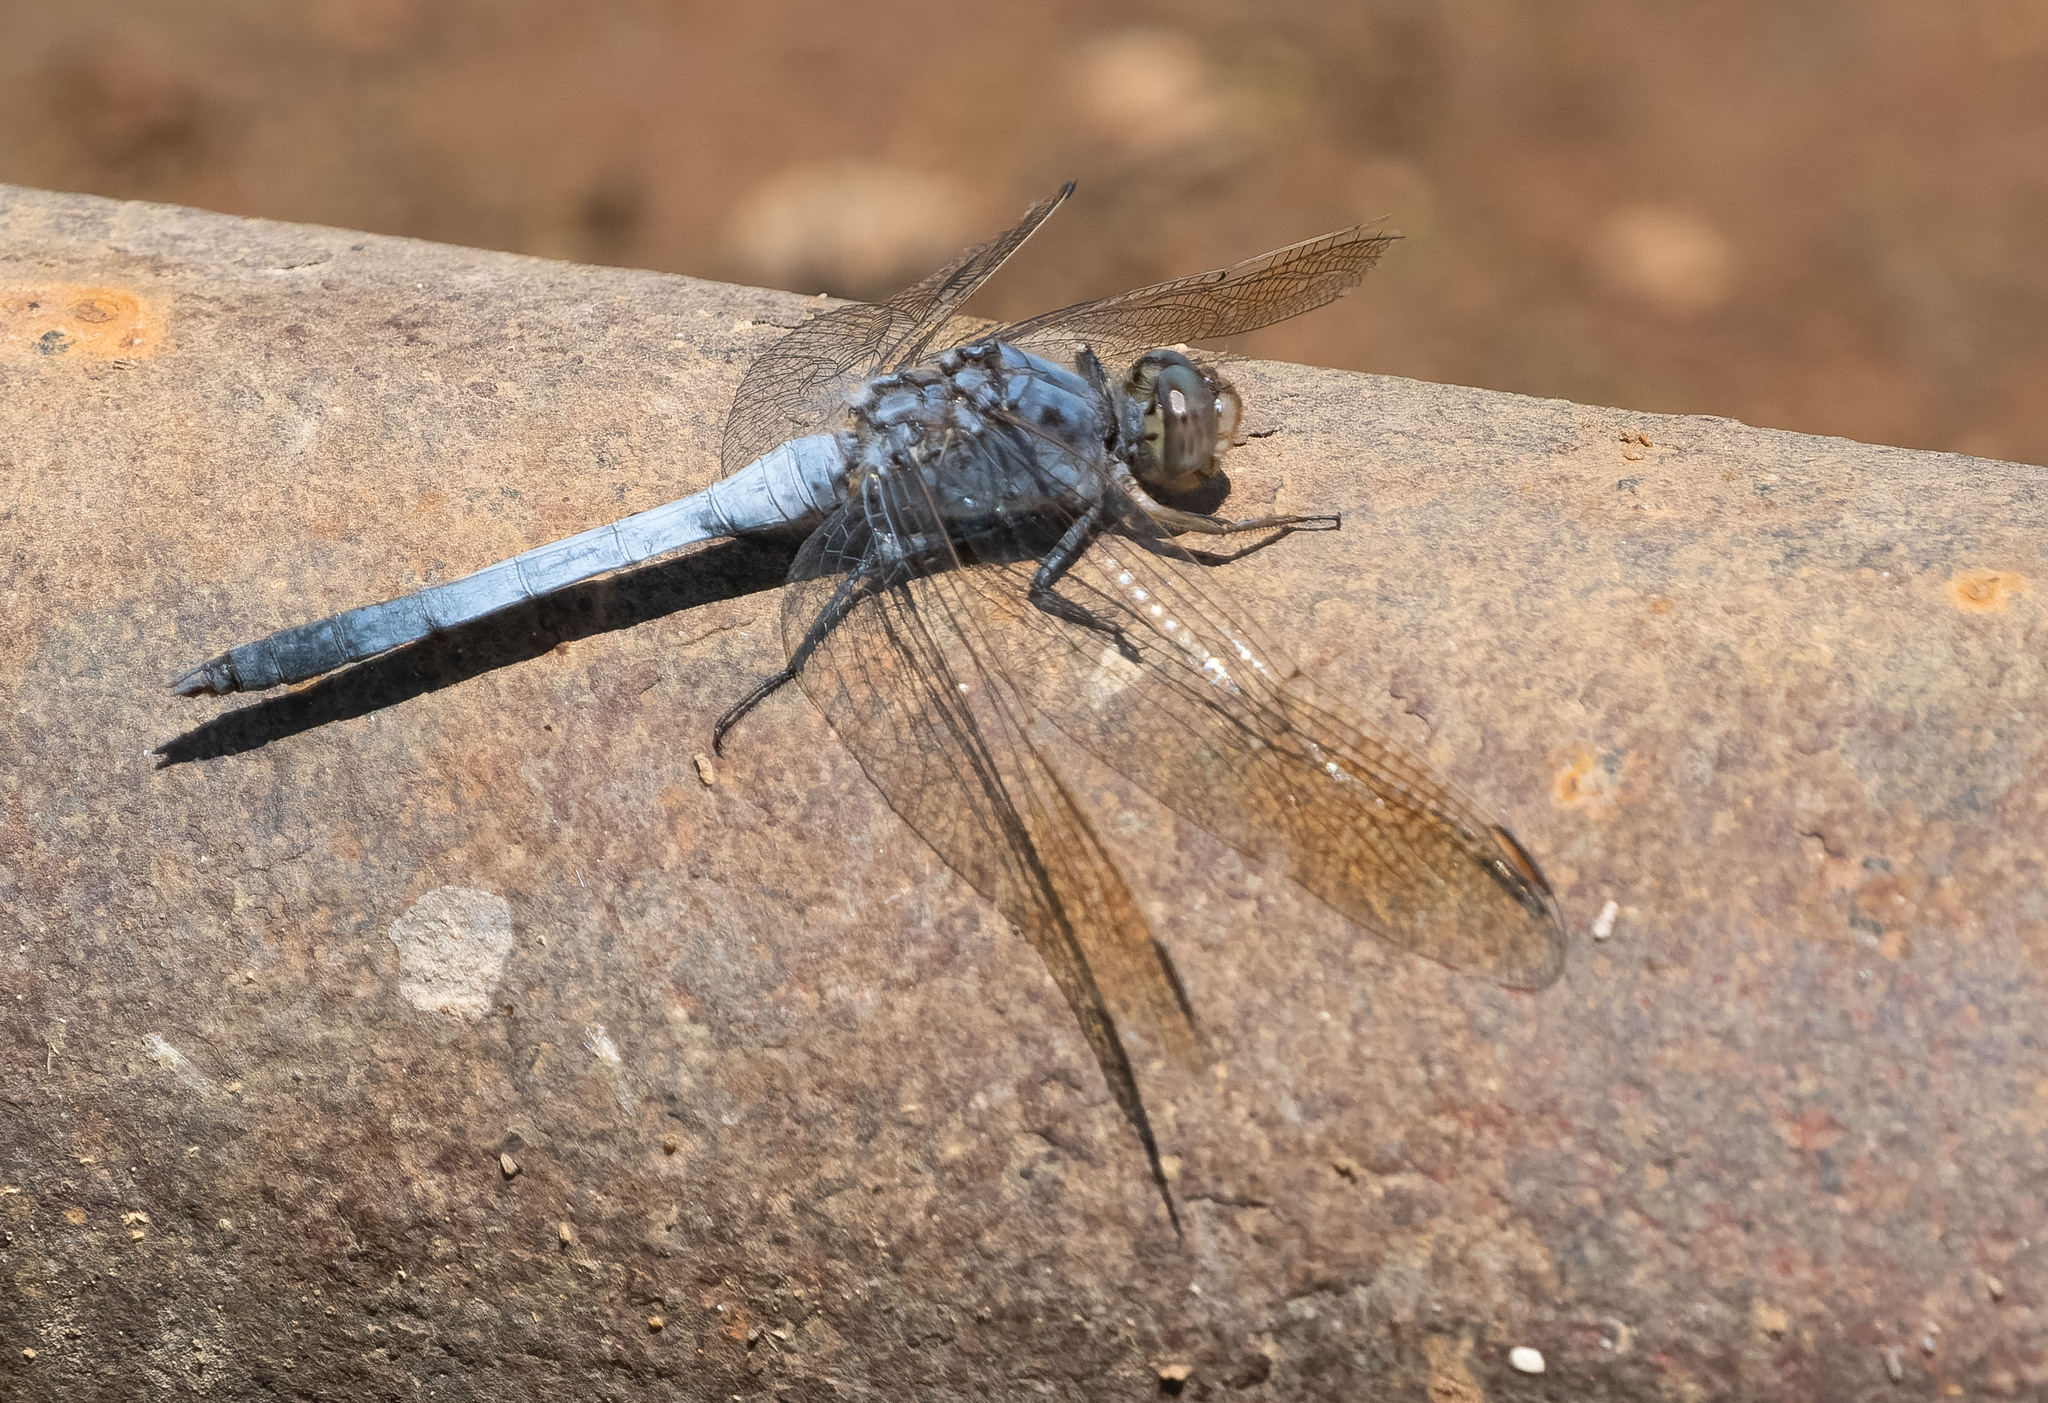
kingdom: Animalia
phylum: Arthropoda
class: Insecta
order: Odonata
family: Libellulidae
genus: Orthetrum
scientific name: Orthetrum caledonicum
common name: Blue skimmer
